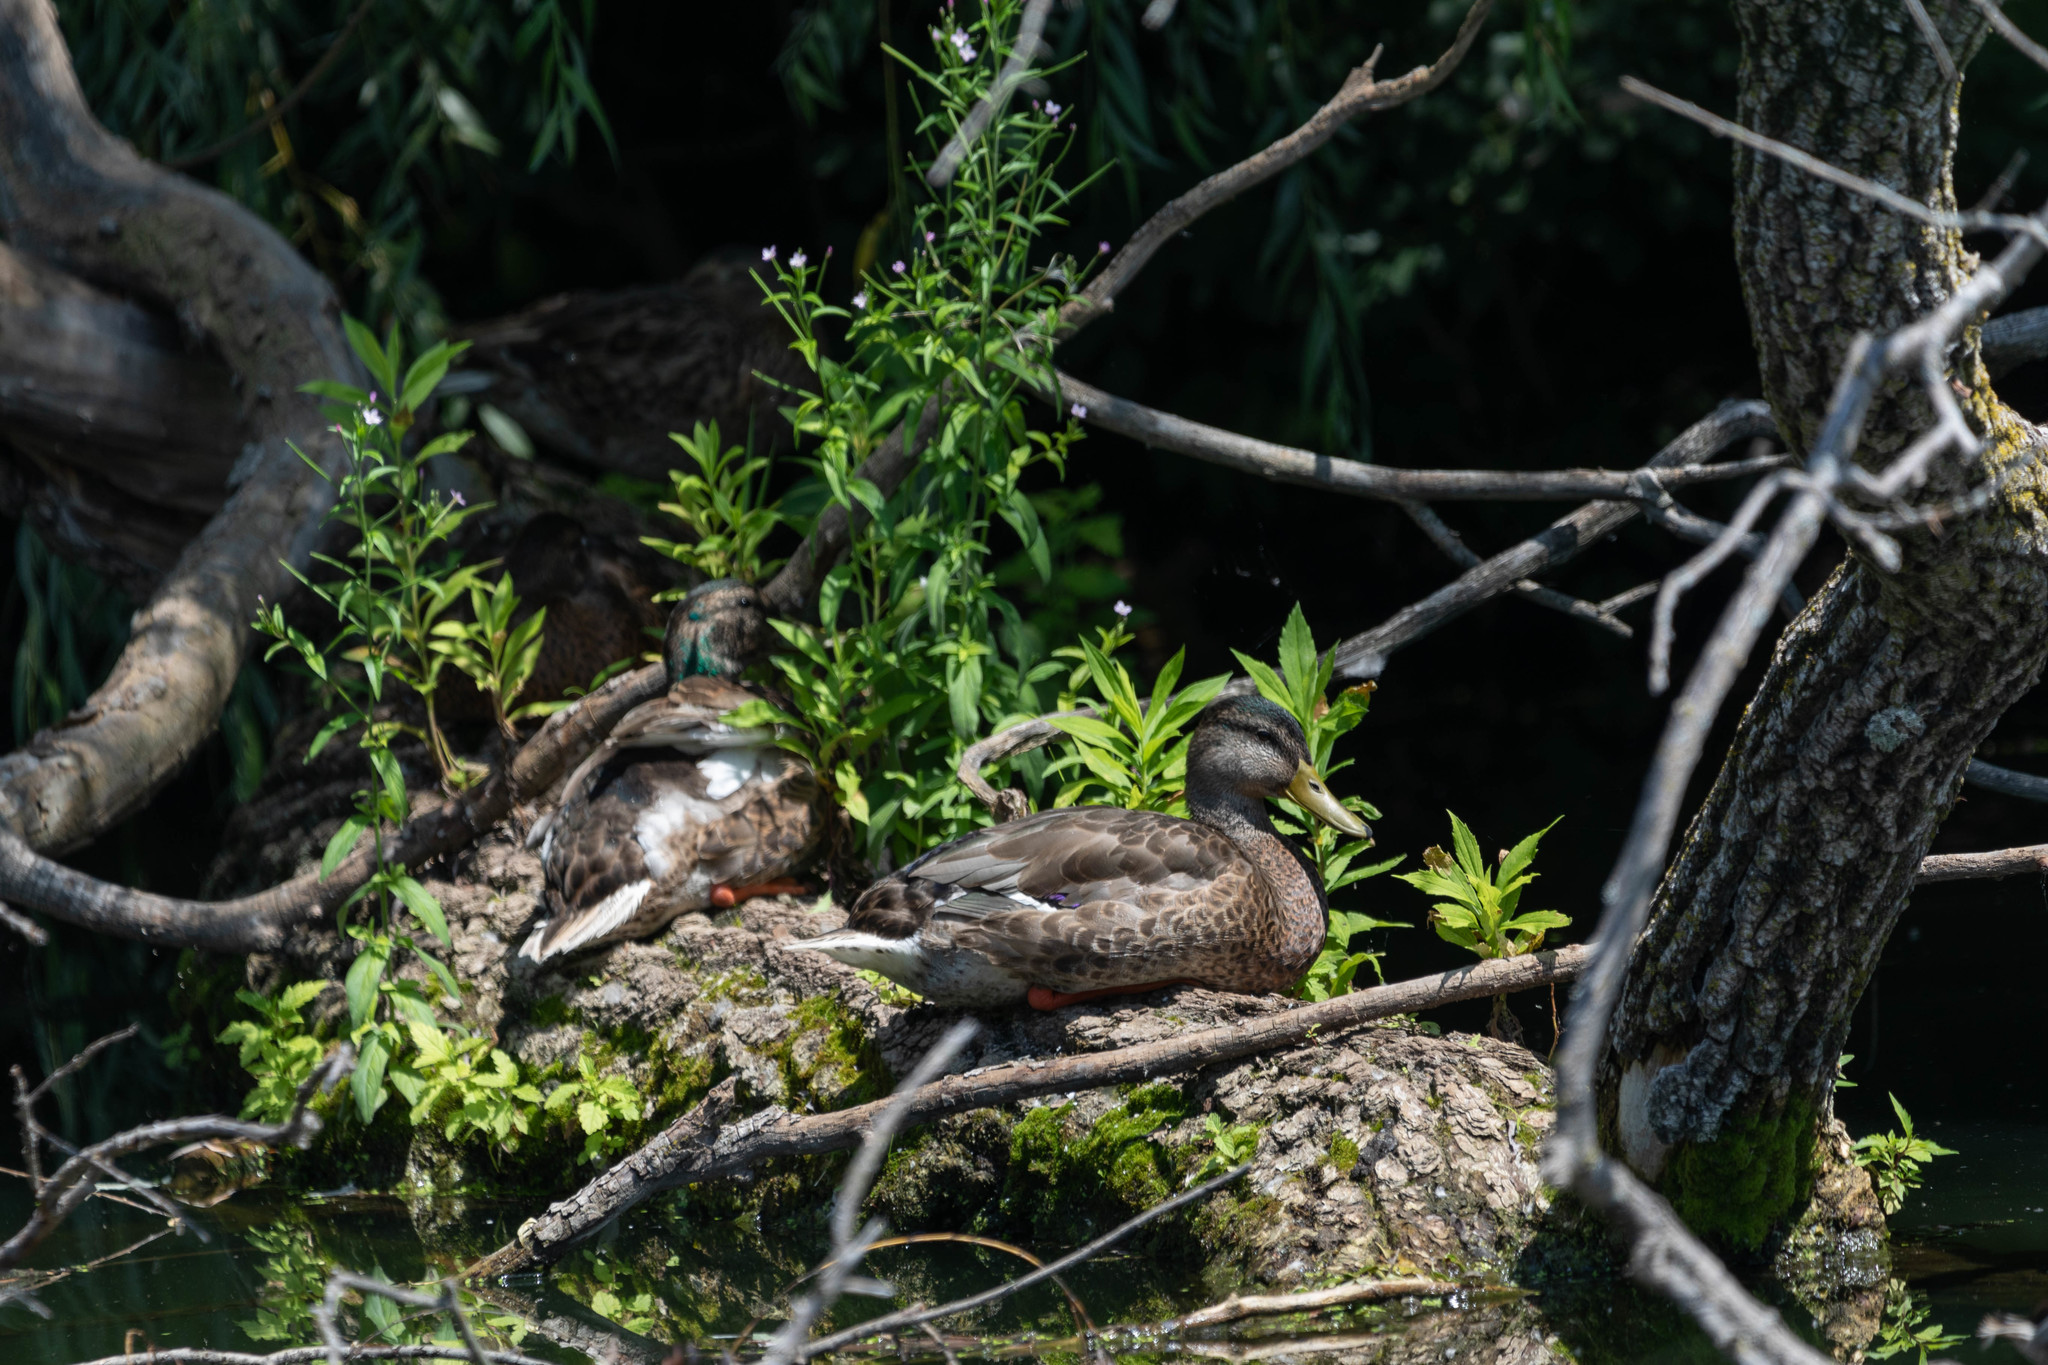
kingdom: Animalia
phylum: Chordata
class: Aves
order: Anseriformes
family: Anatidae
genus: Anas
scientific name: Anas platyrhynchos
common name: Mallard
